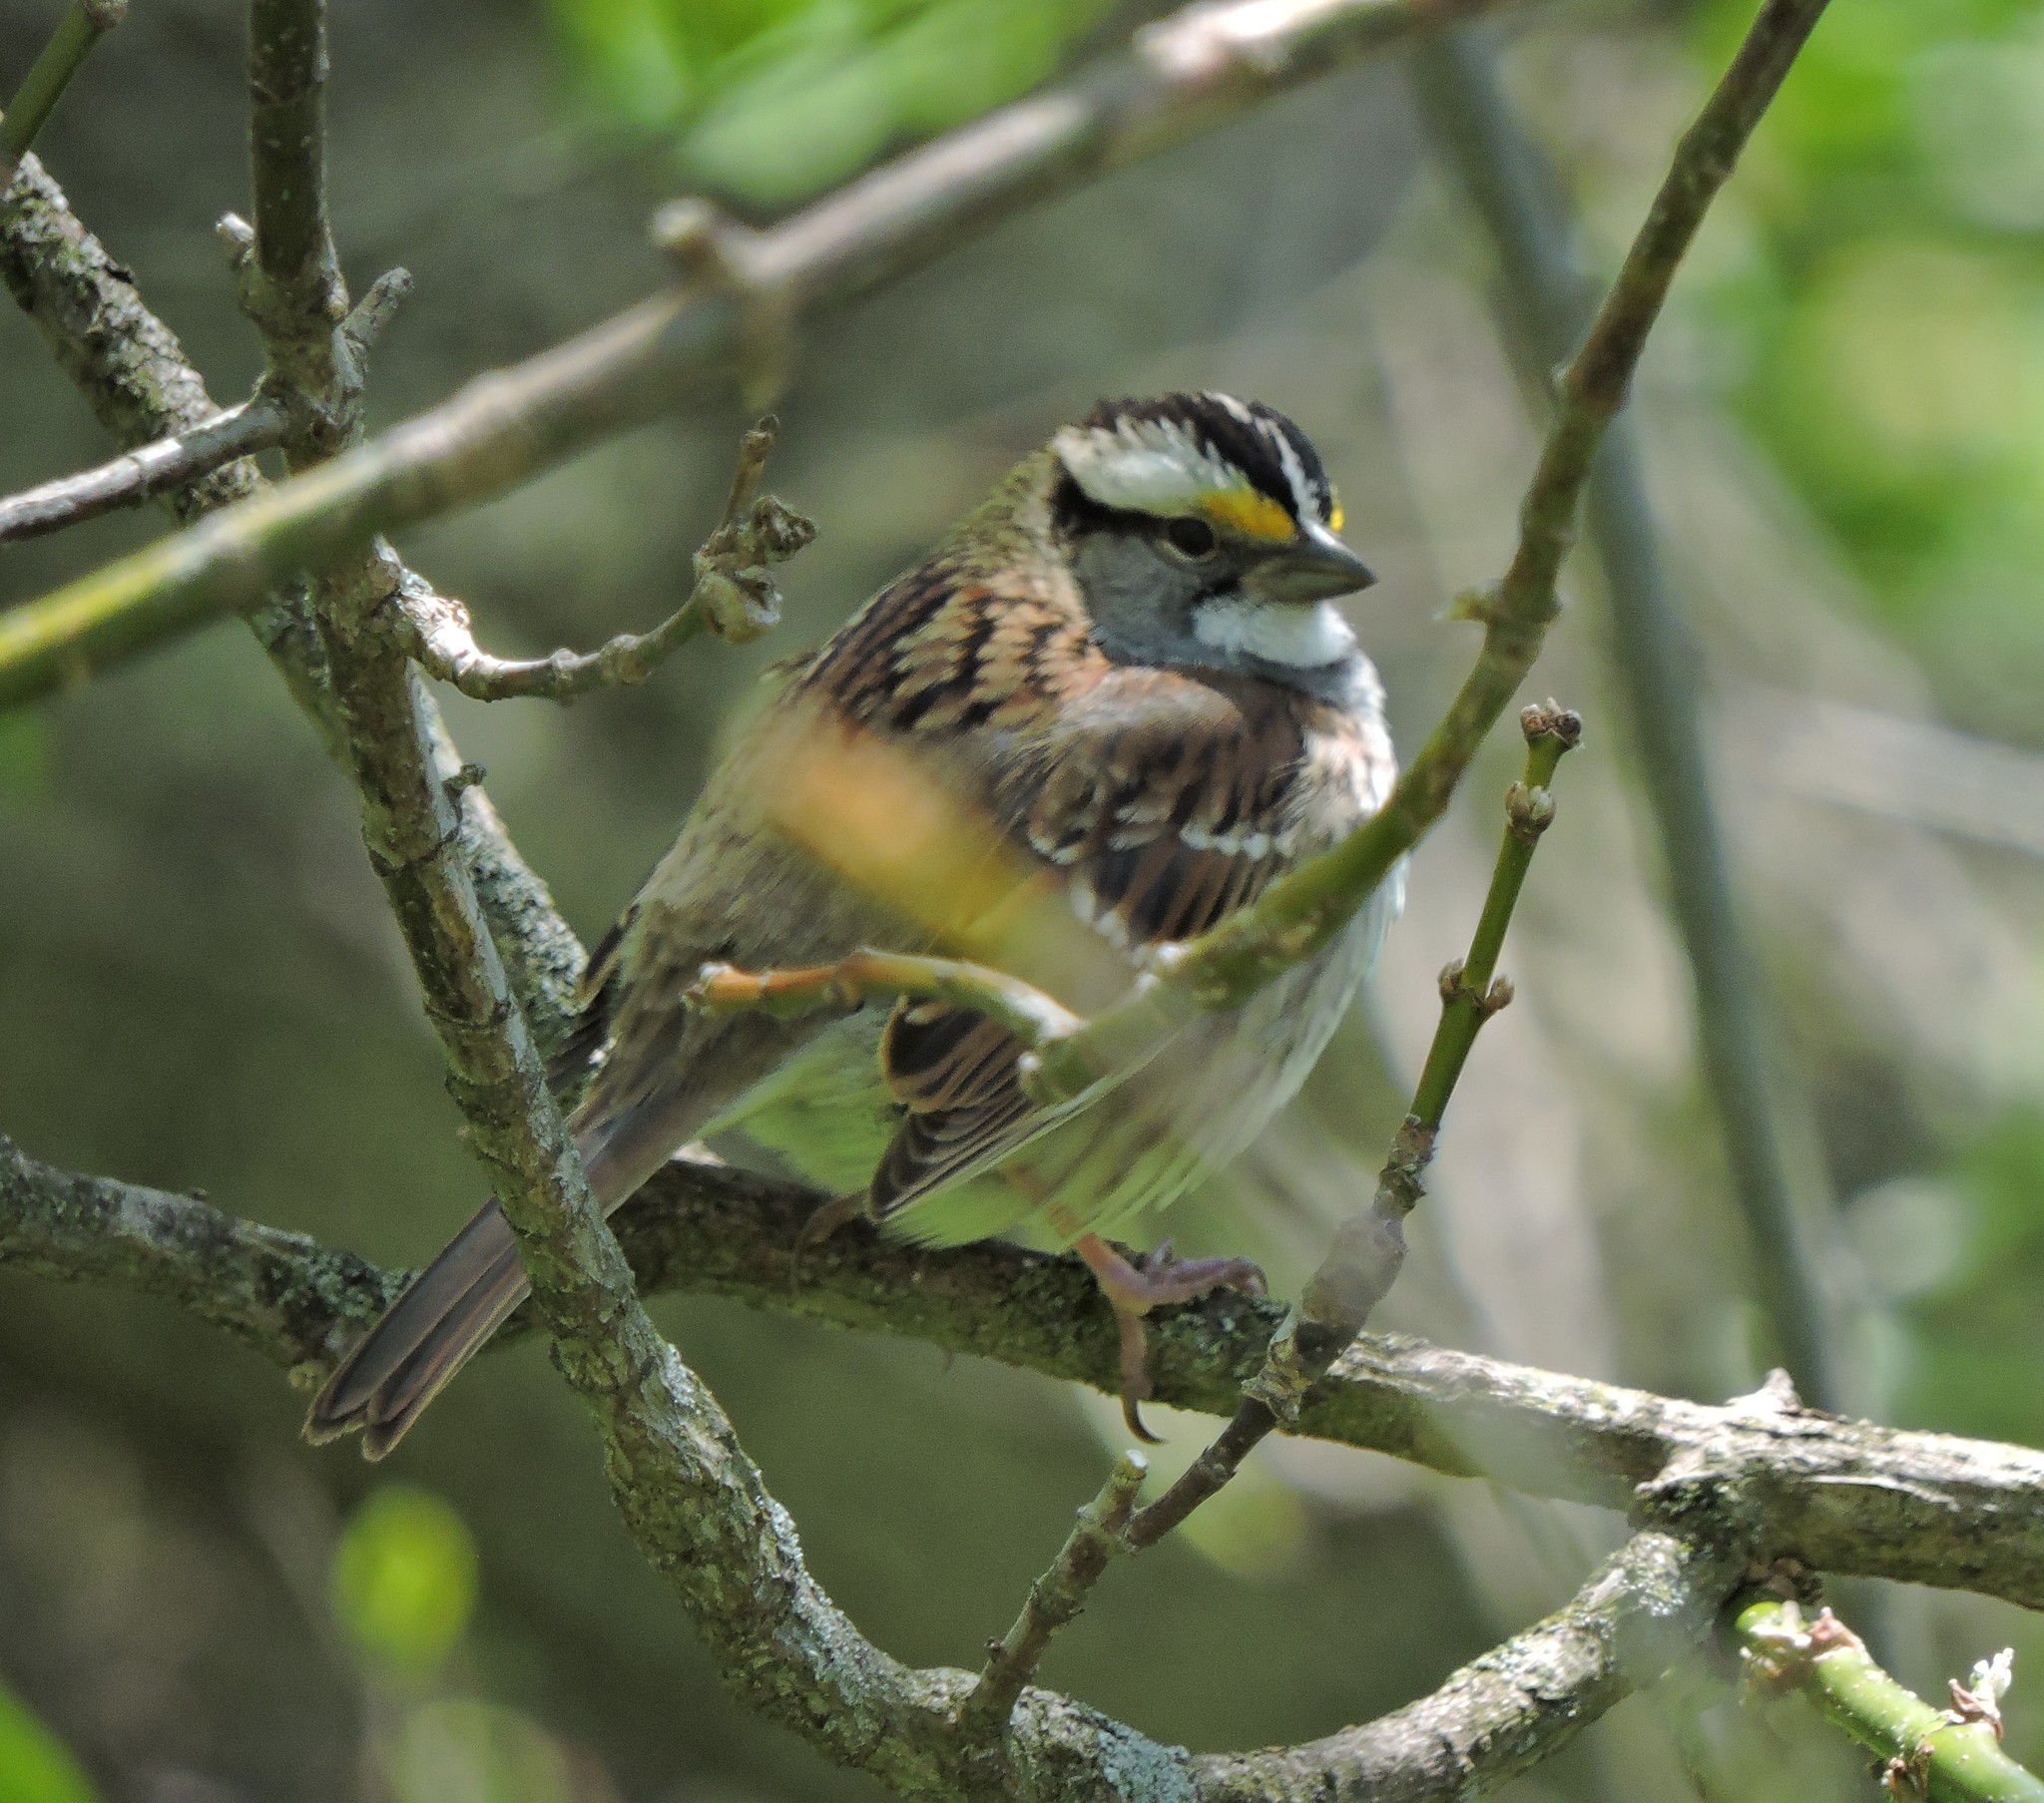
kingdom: Animalia
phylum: Chordata
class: Aves
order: Passeriformes
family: Passerellidae
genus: Zonotrichia
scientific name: Zonotrichia albicollis
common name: White-throated sparrow
